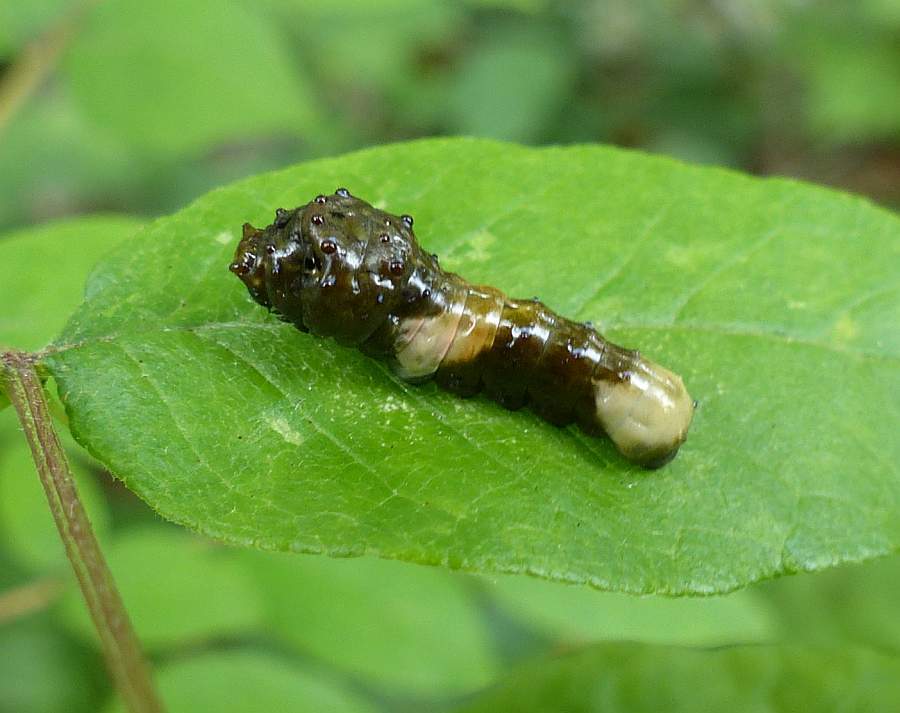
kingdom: Animalia
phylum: Arthropoda
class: Insecta
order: Lepidoptera
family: Papilionidae
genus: Papilio
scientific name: Papilio cresphontes
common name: Giant swallowtail
